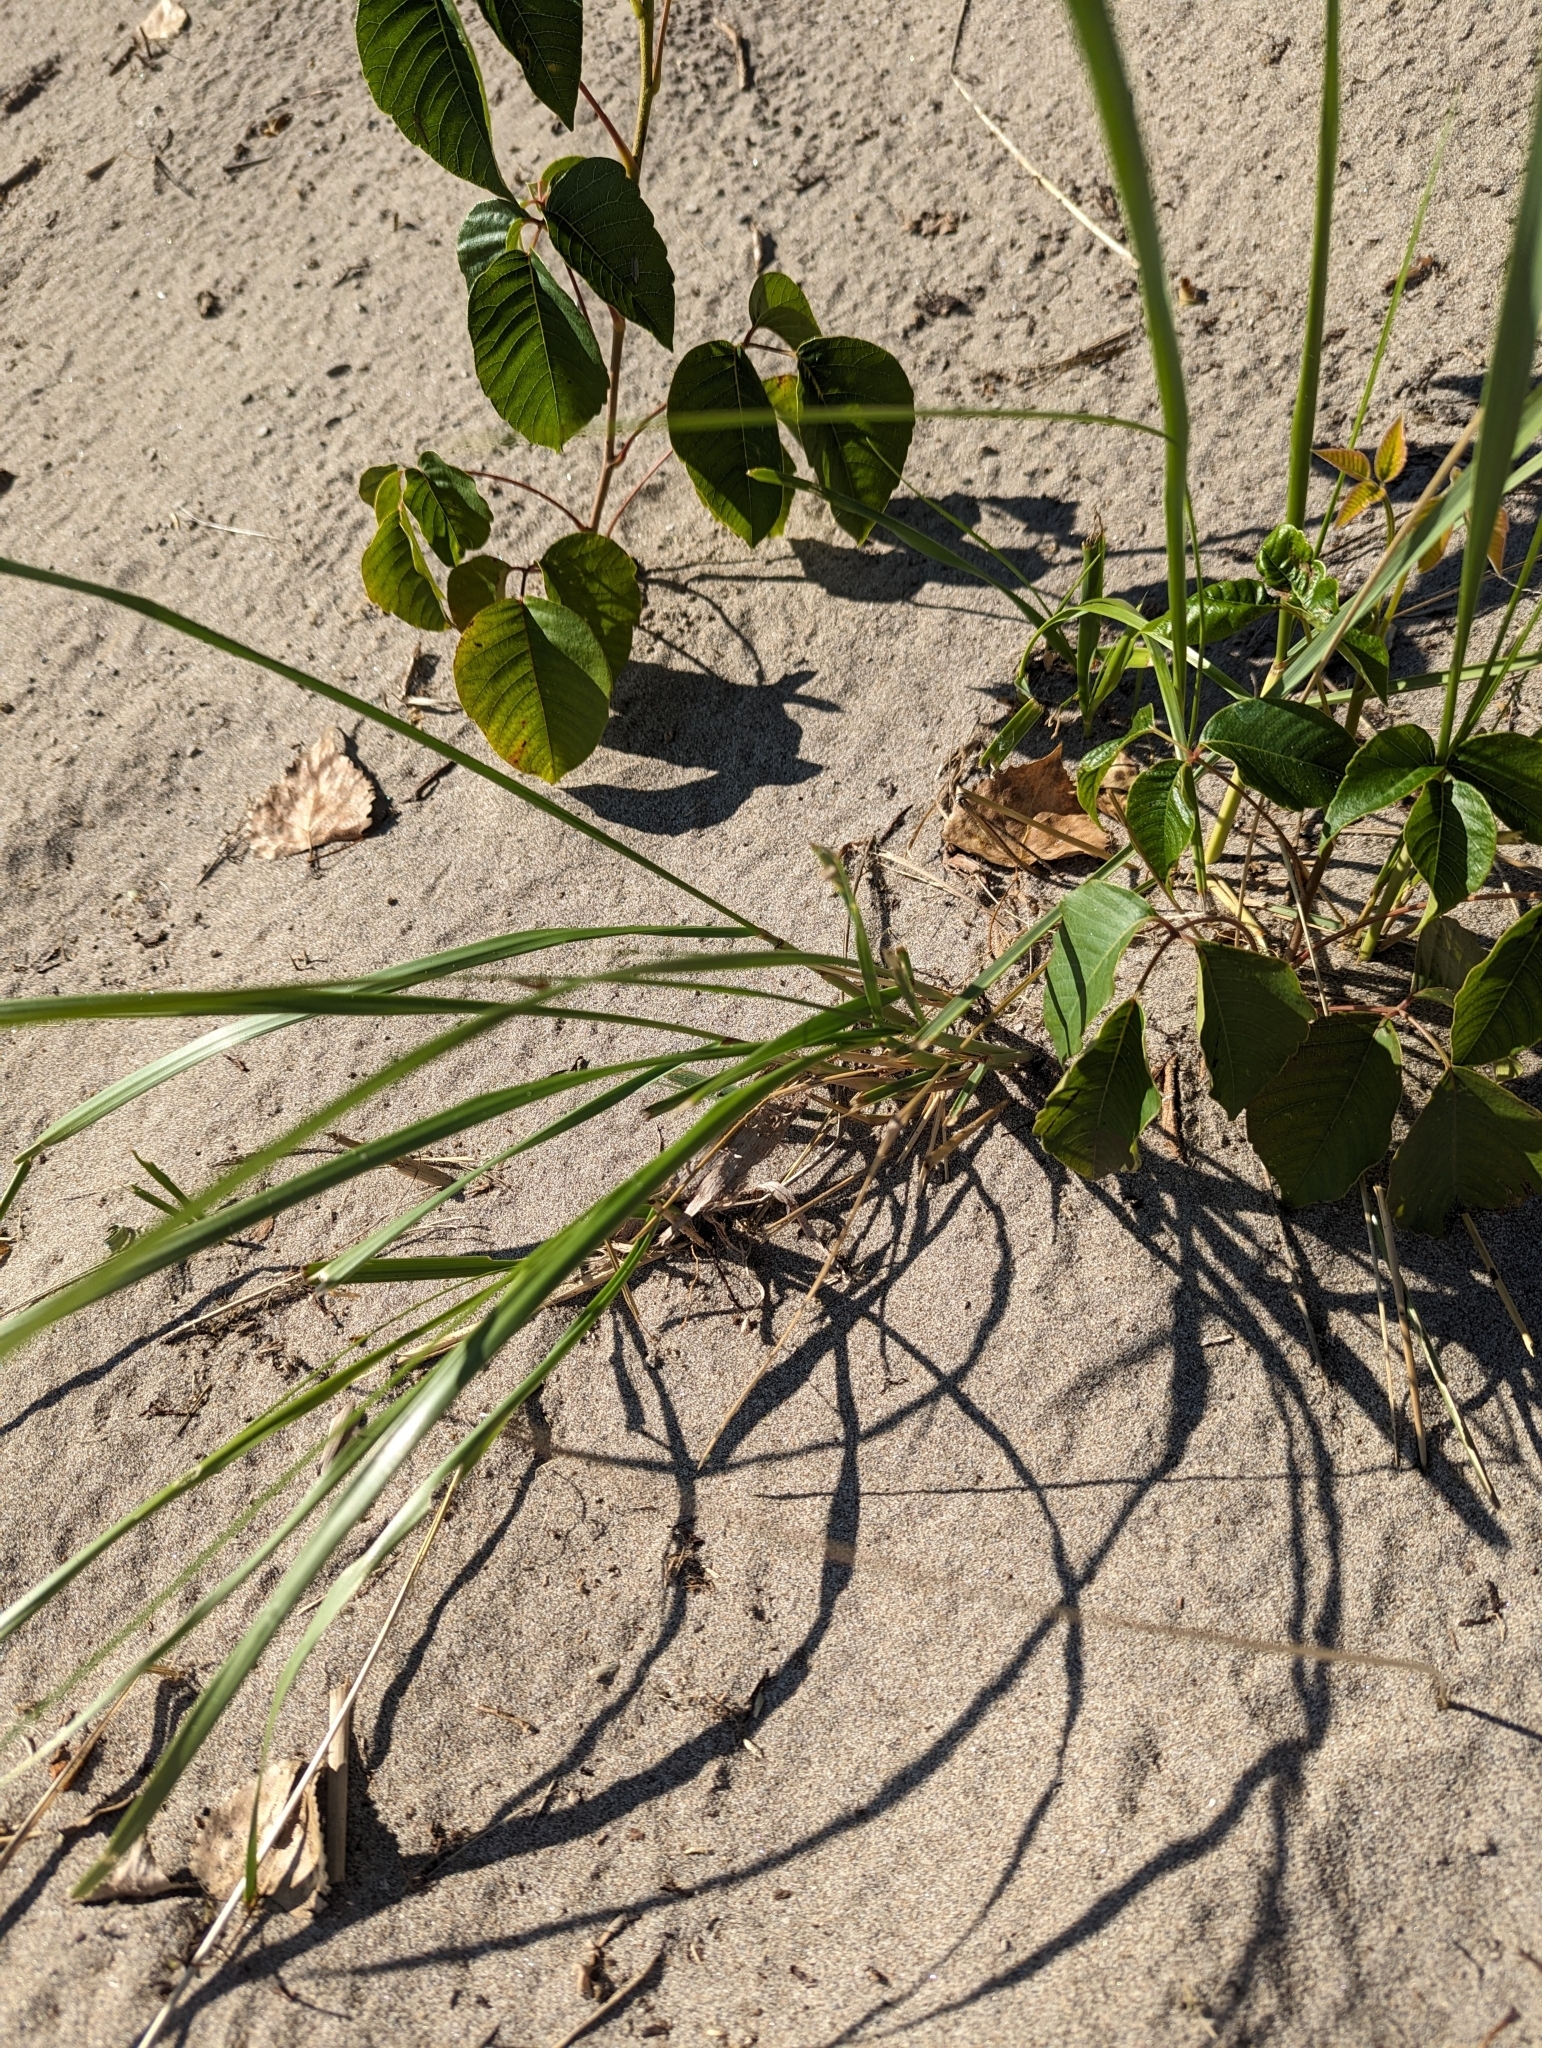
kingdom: Plantae
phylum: Tracheophyta
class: Liliopsida
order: Poales
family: Poaceae
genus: Calamagrostis
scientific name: Calamagrostis breviligulata
